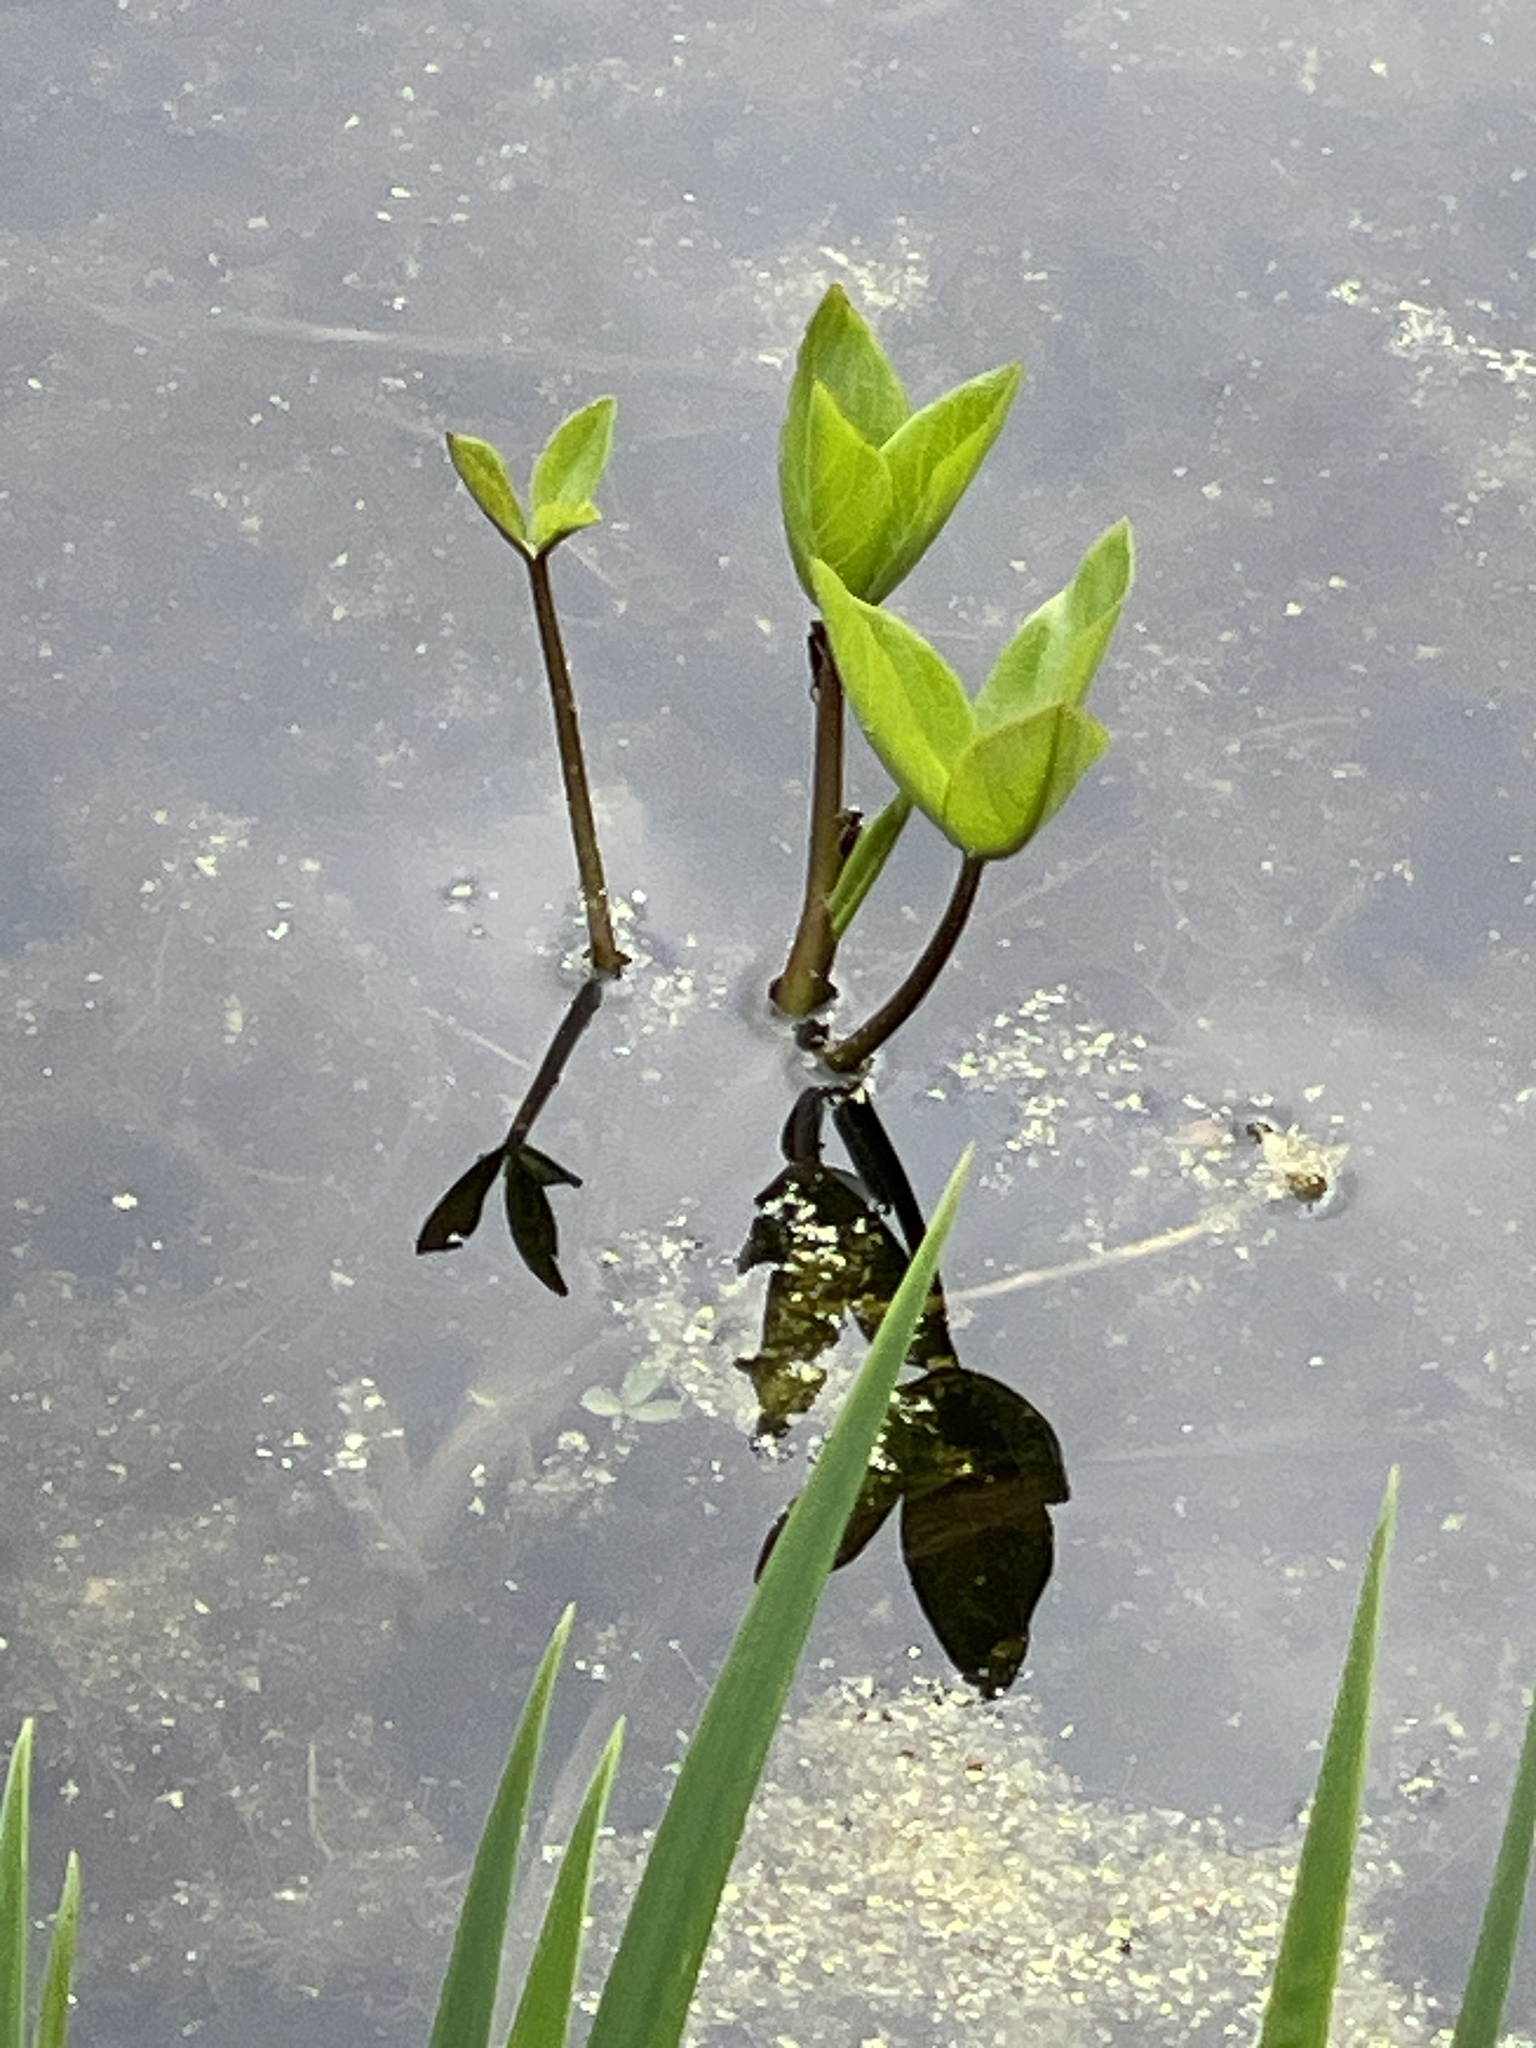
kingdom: Plantae
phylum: Tracheophyta
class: Magnoliopsida
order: Asterales
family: Menyanthaceae
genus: Menyanthes
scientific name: Menyanthes trifoliata
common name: Bogbean
